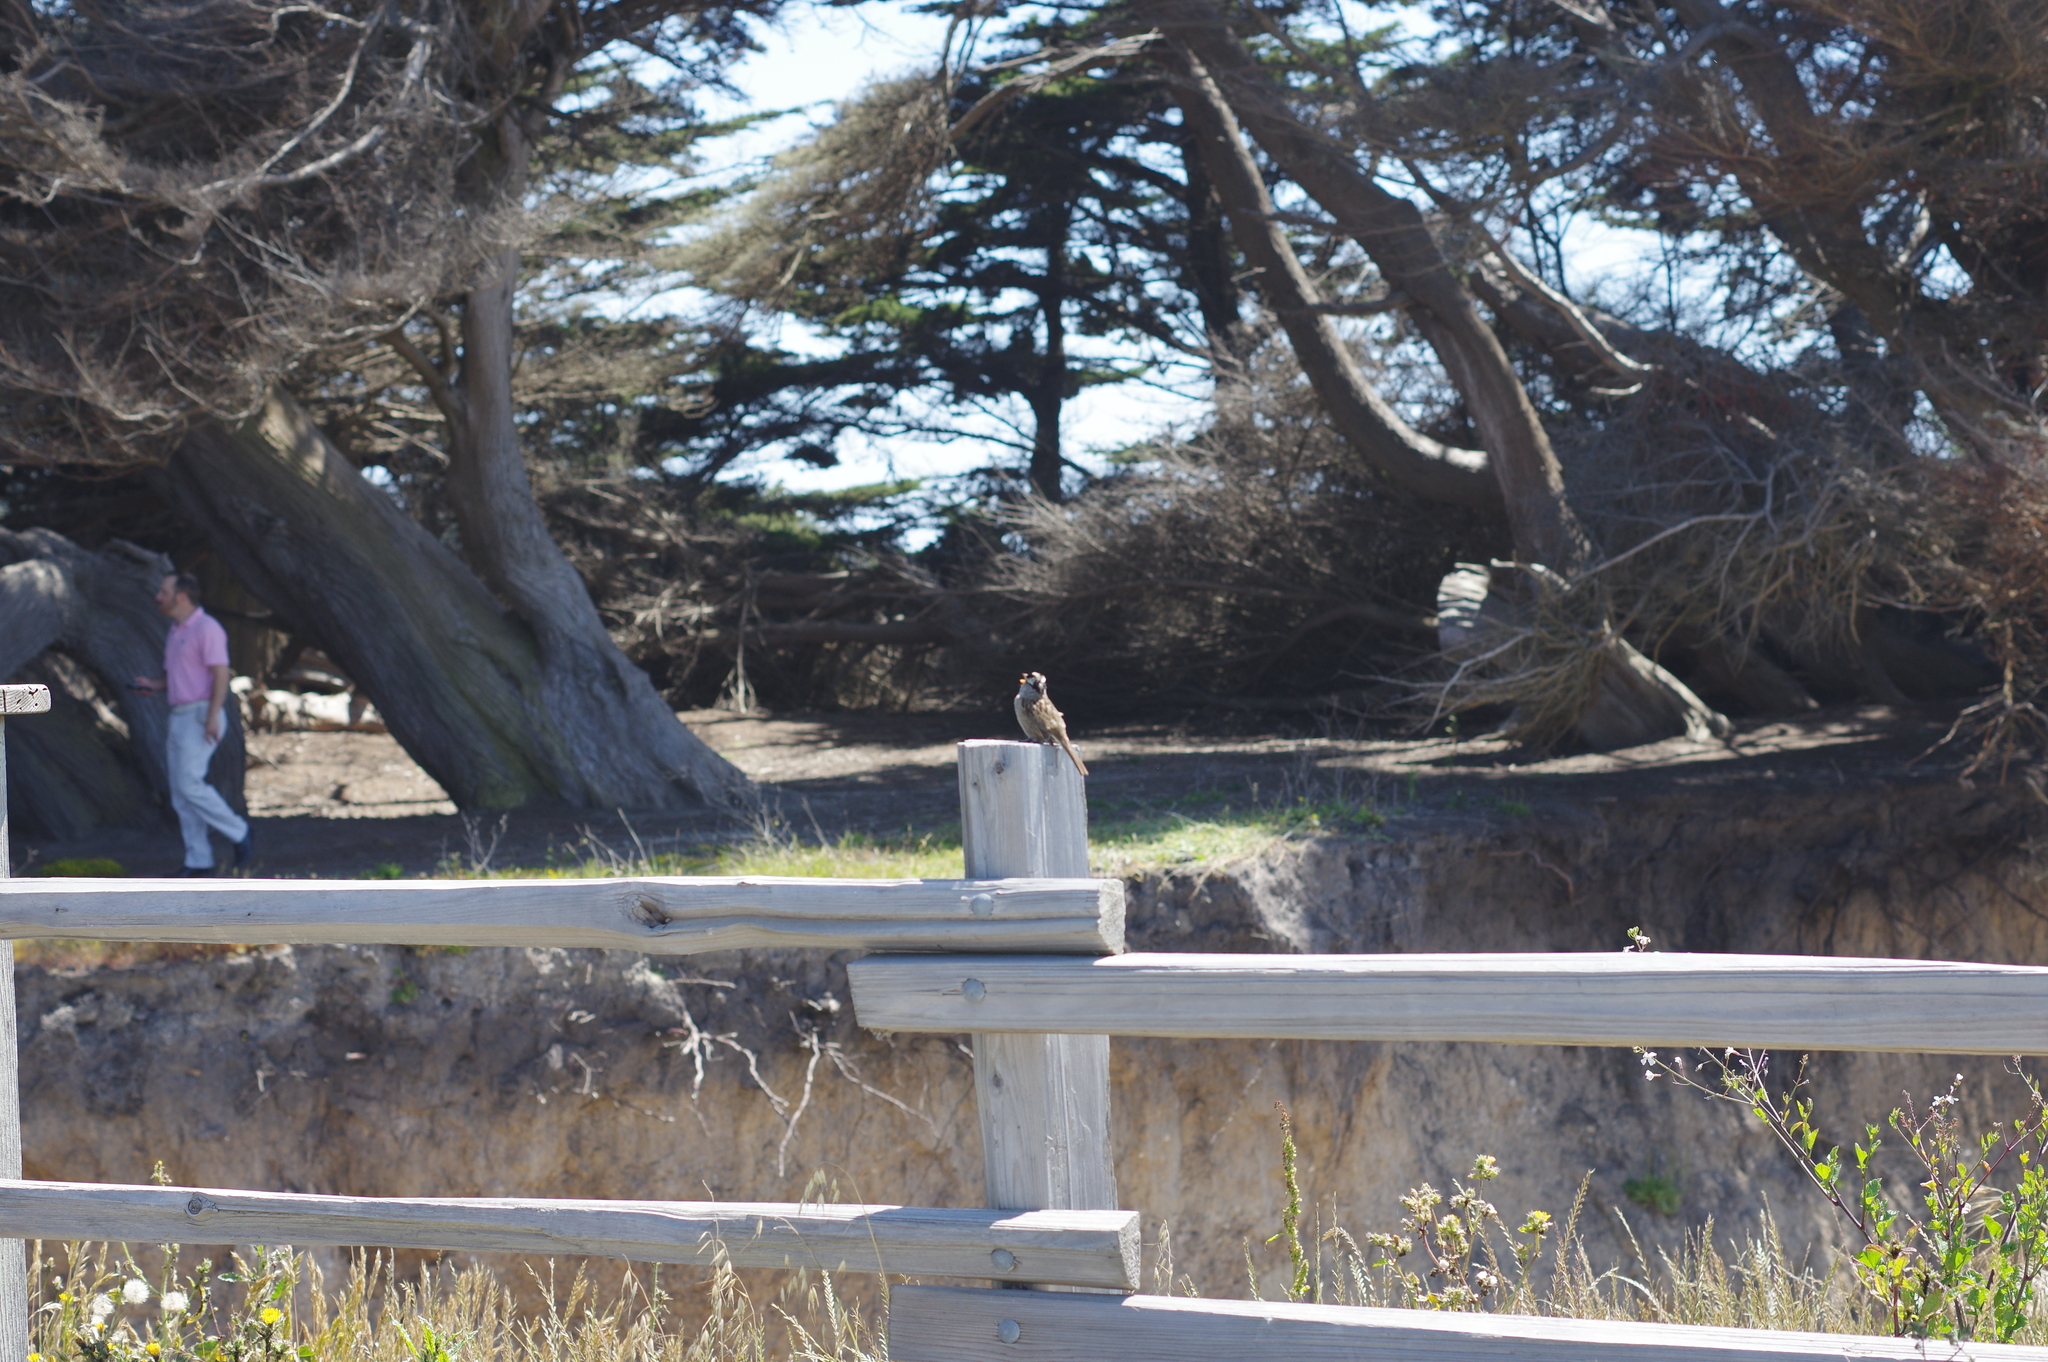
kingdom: Animalia
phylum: Chordata
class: Aves
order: Passeriformes
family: Passerellidae
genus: Zonotrichia
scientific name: Zonotrichia leucophrys
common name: White-crowned sparrow
